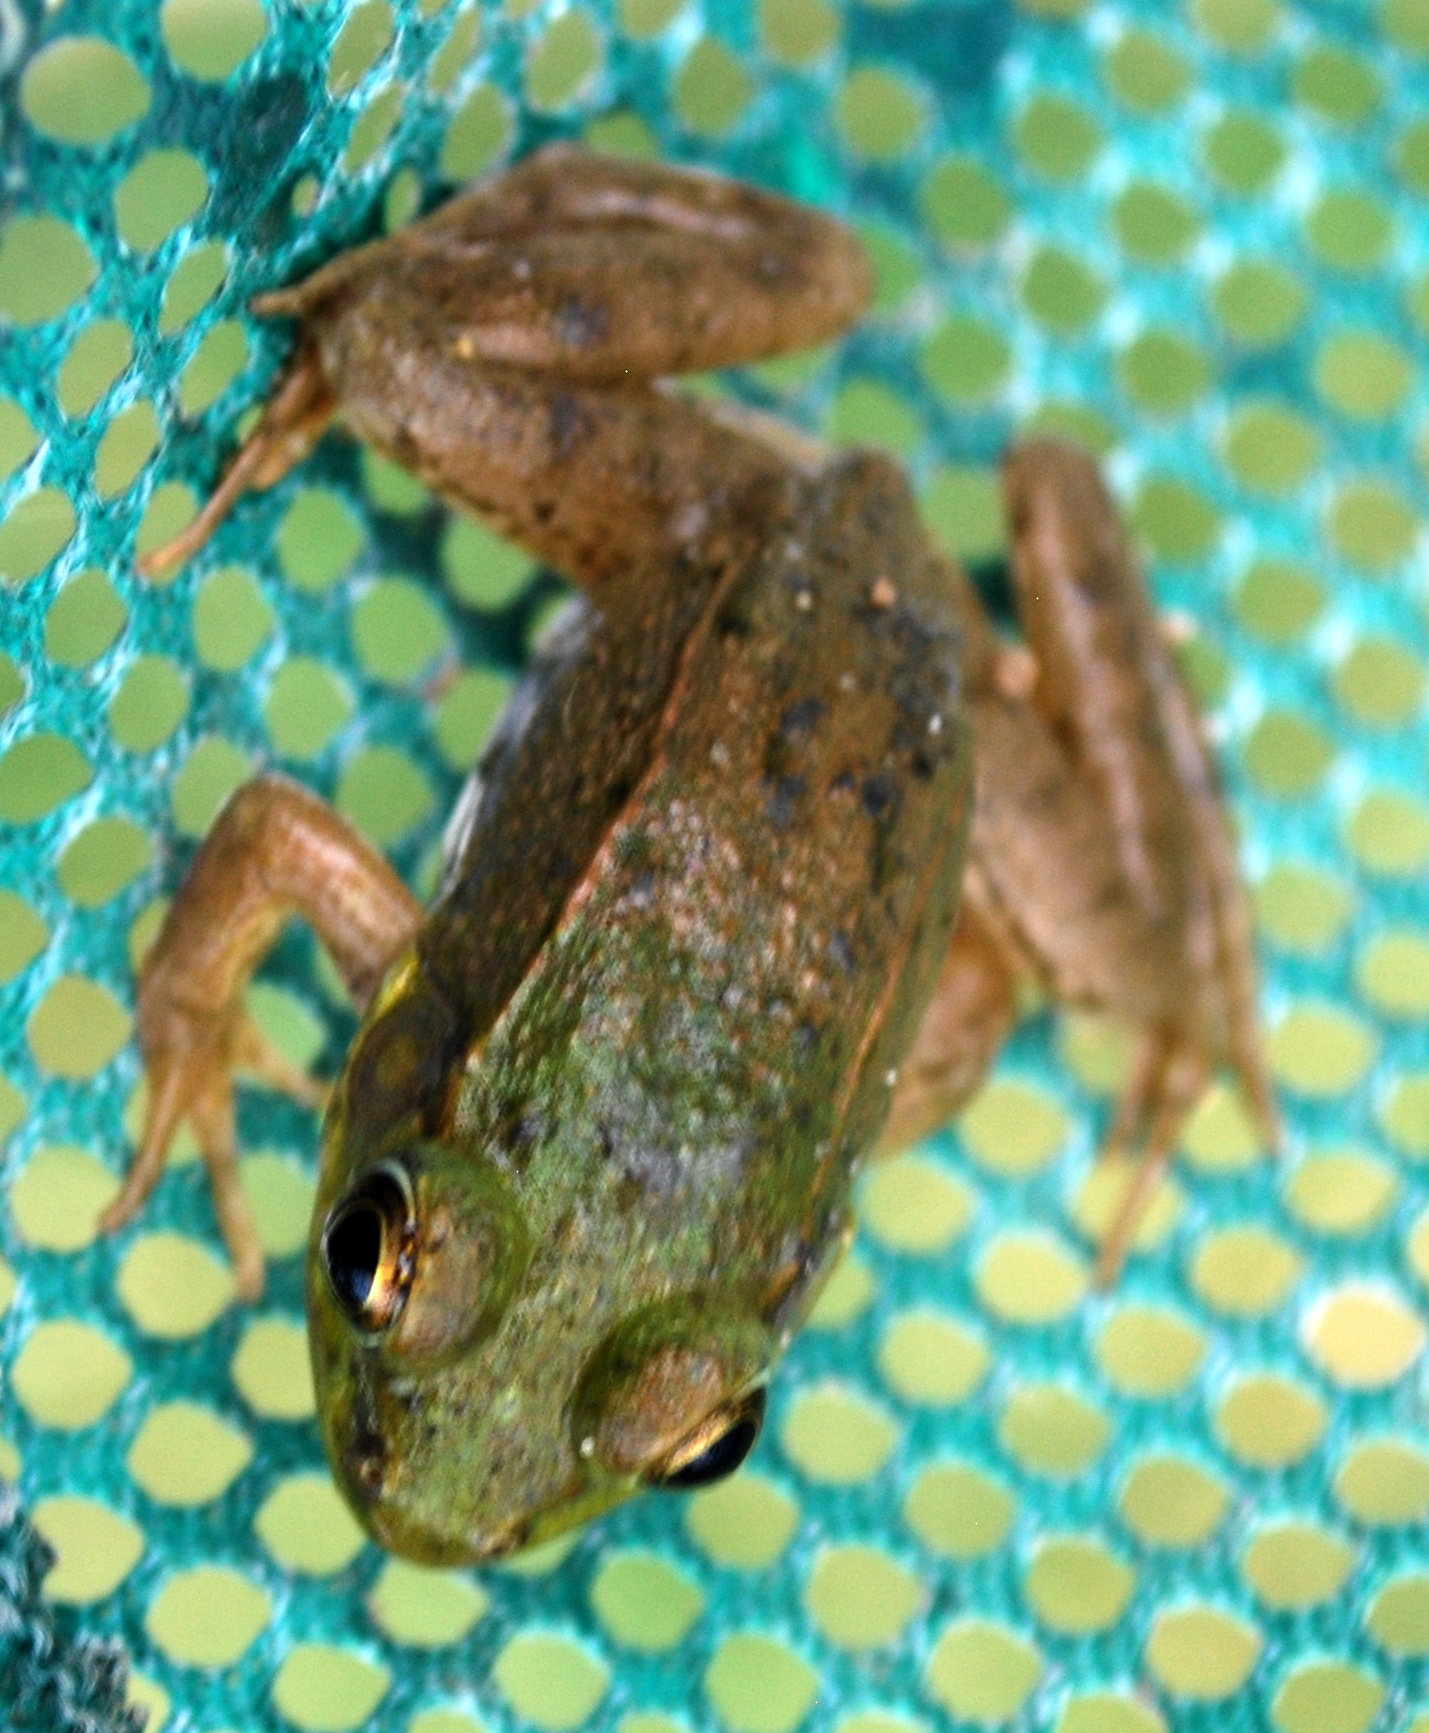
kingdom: Animalia
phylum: Chordata
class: Amphibia
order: Anura
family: Ranidae
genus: Lithobates
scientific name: Lithobates clamitans
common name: Green frog
